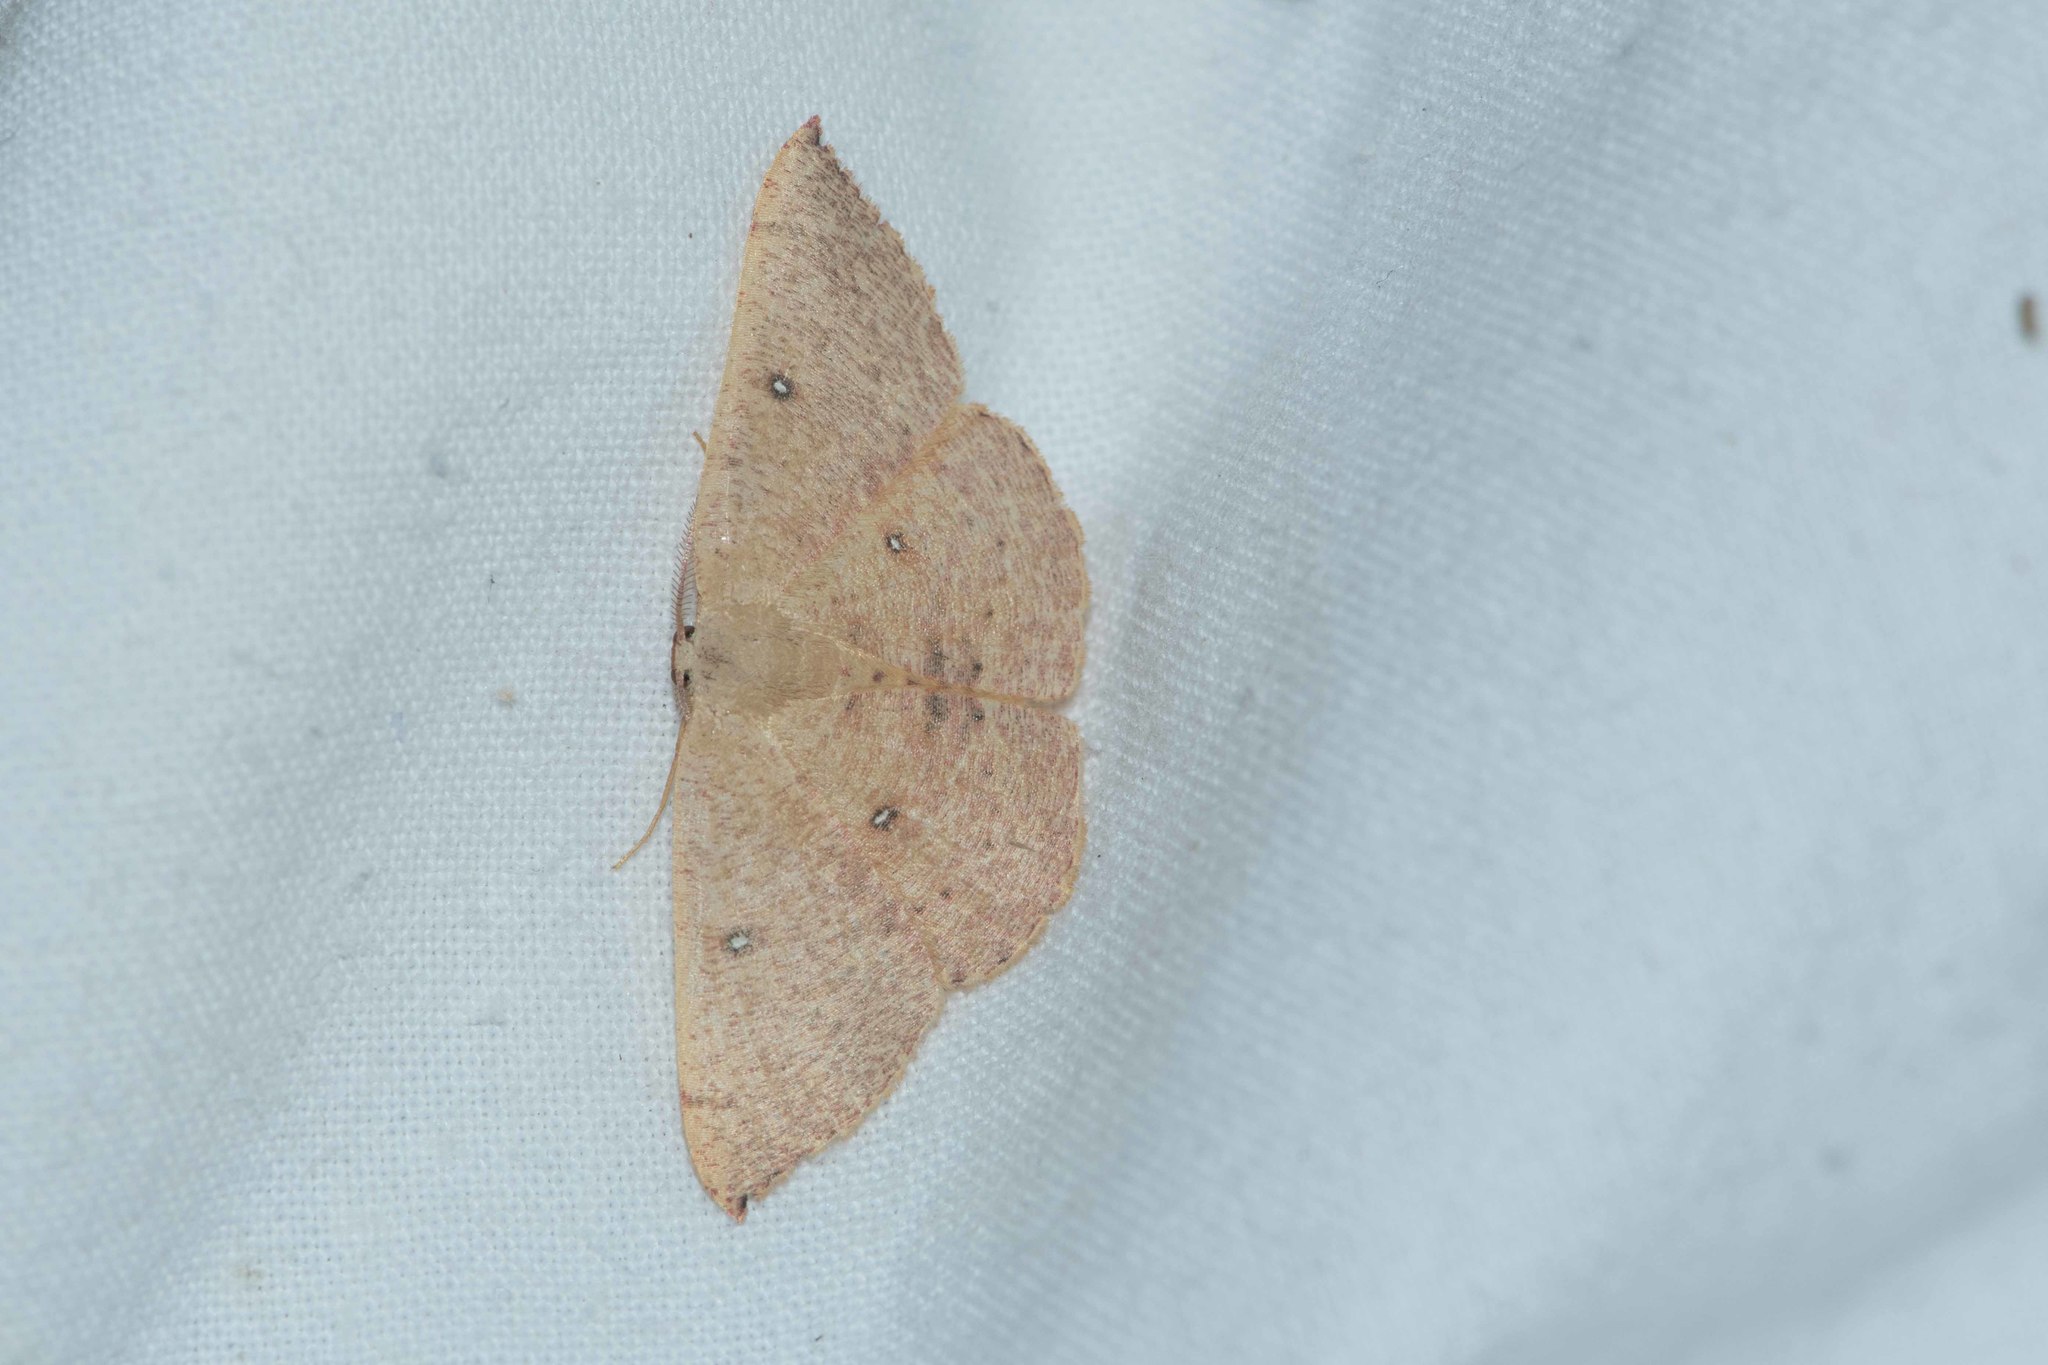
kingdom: Animalia
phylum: Arthropoda
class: Insecta
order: Lepidoptera
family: Geometridae
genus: Cyclophora
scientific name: Cyclophora puppillaria
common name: Blair's mocha
